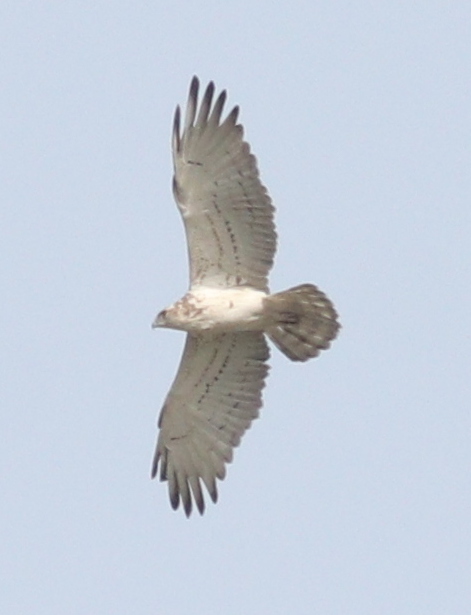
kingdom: Animalia
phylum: Chordata
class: Aves
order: Accipitriformes
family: Accipitridae
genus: Circaetus
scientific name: Circaetus gallicus
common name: Short-toed snake eagle
